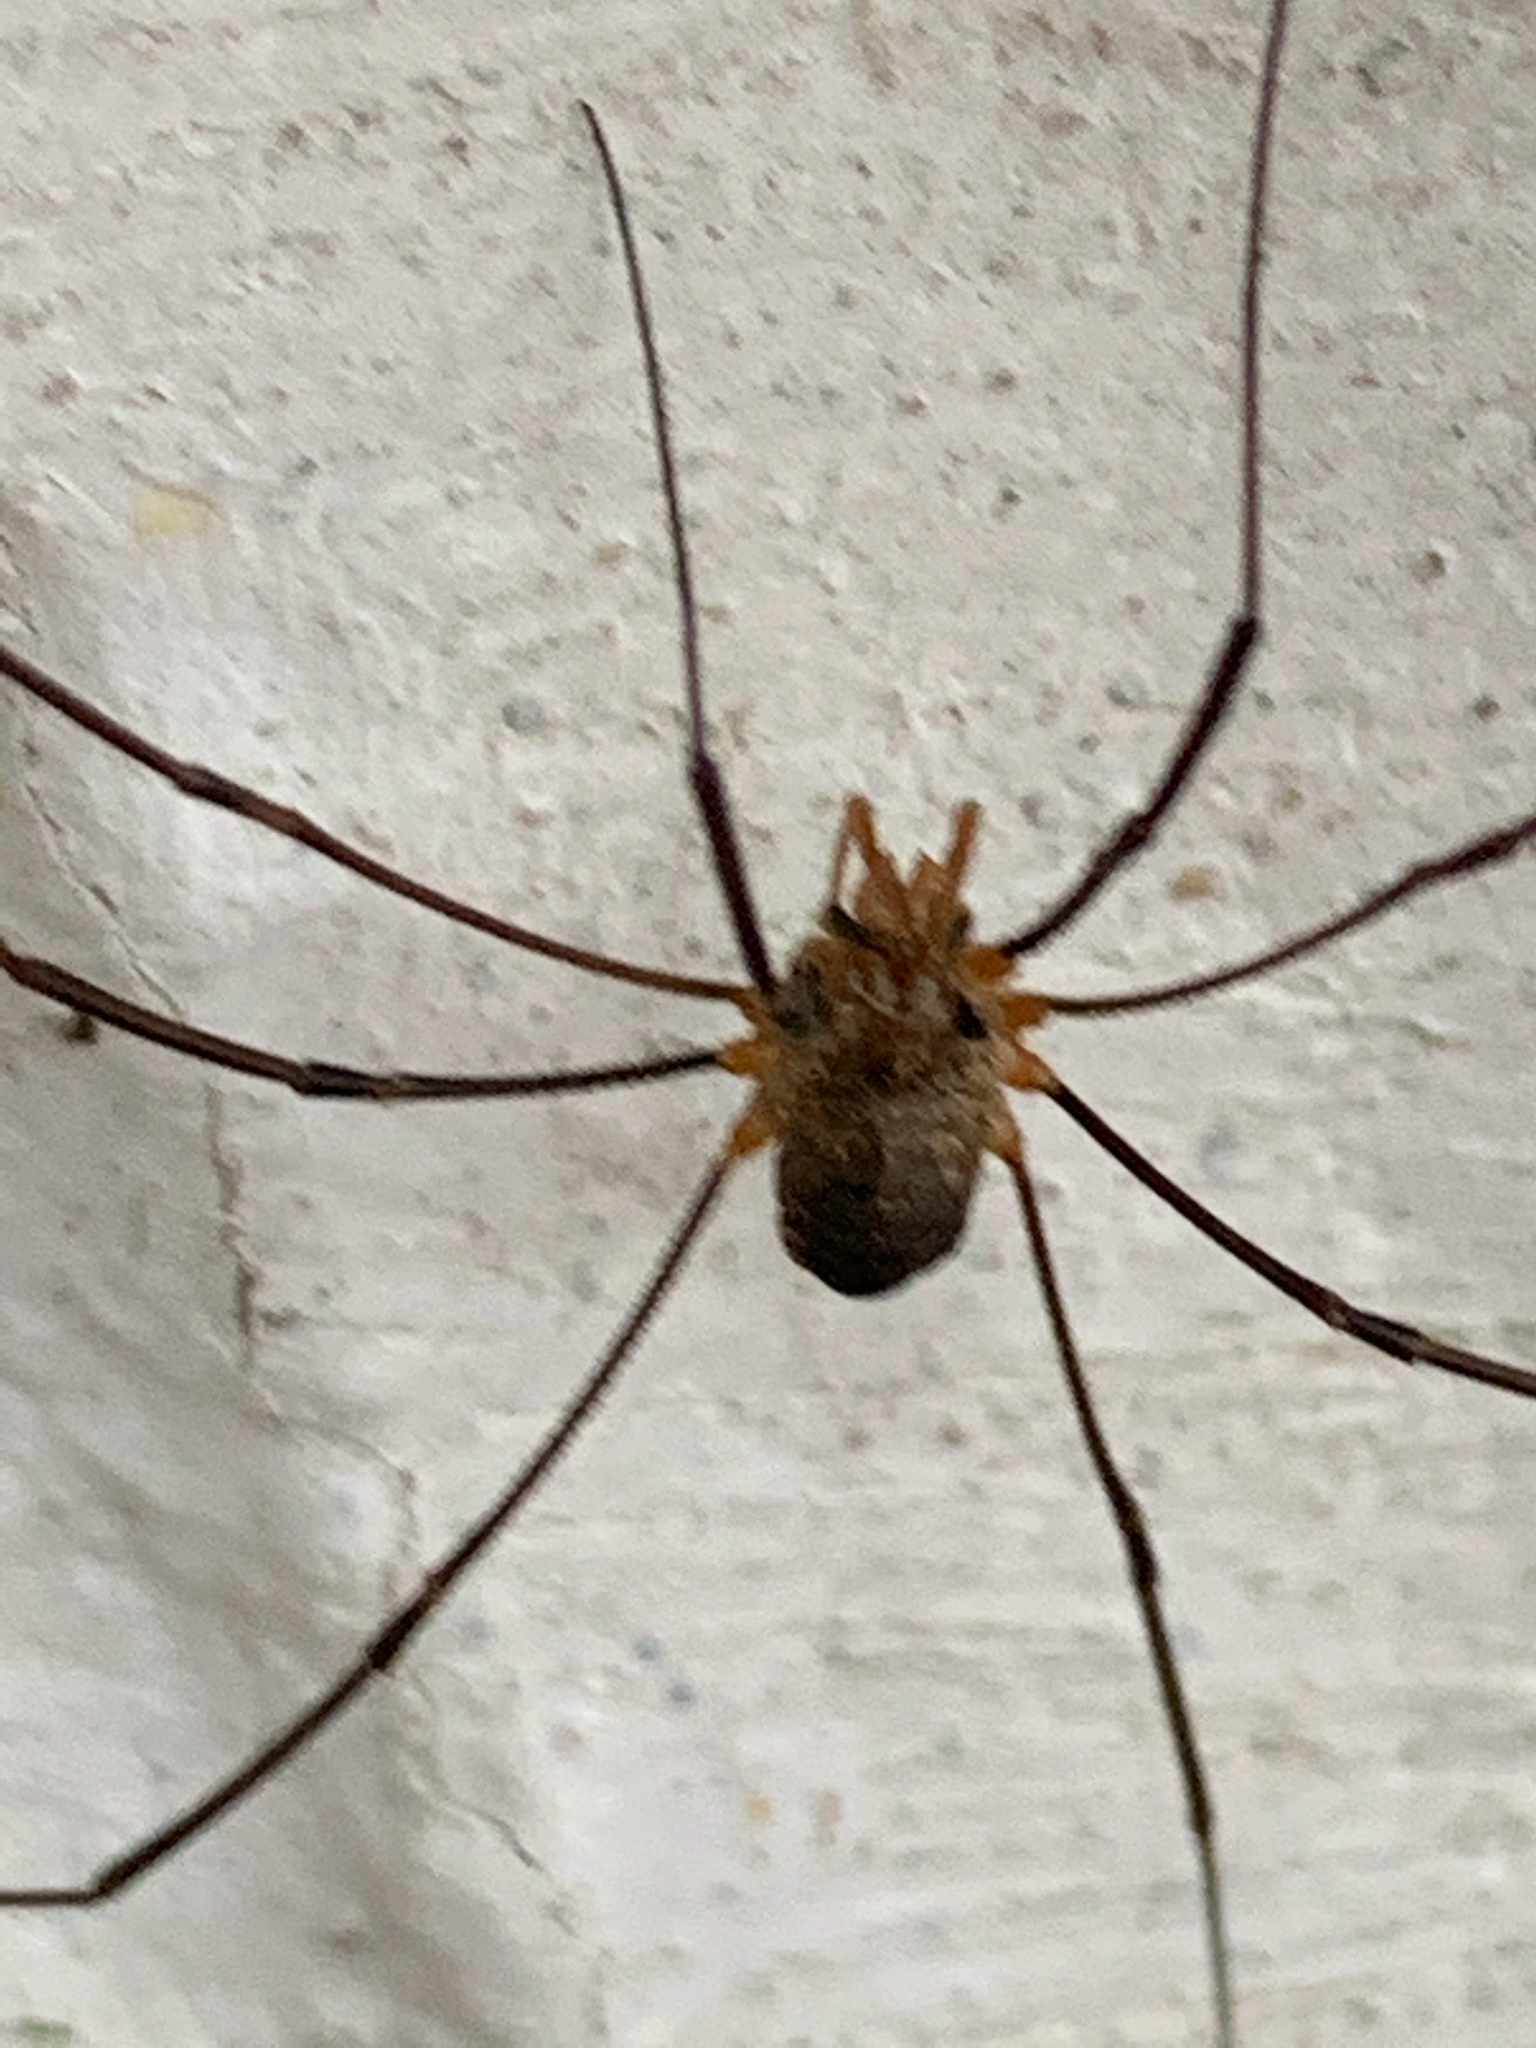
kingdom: Animalia
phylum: Arthropoda
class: Arachnida
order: Opiliones
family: Phalangiidae
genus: Phalangium
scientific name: Phalangium opilio
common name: Daddy longleg
